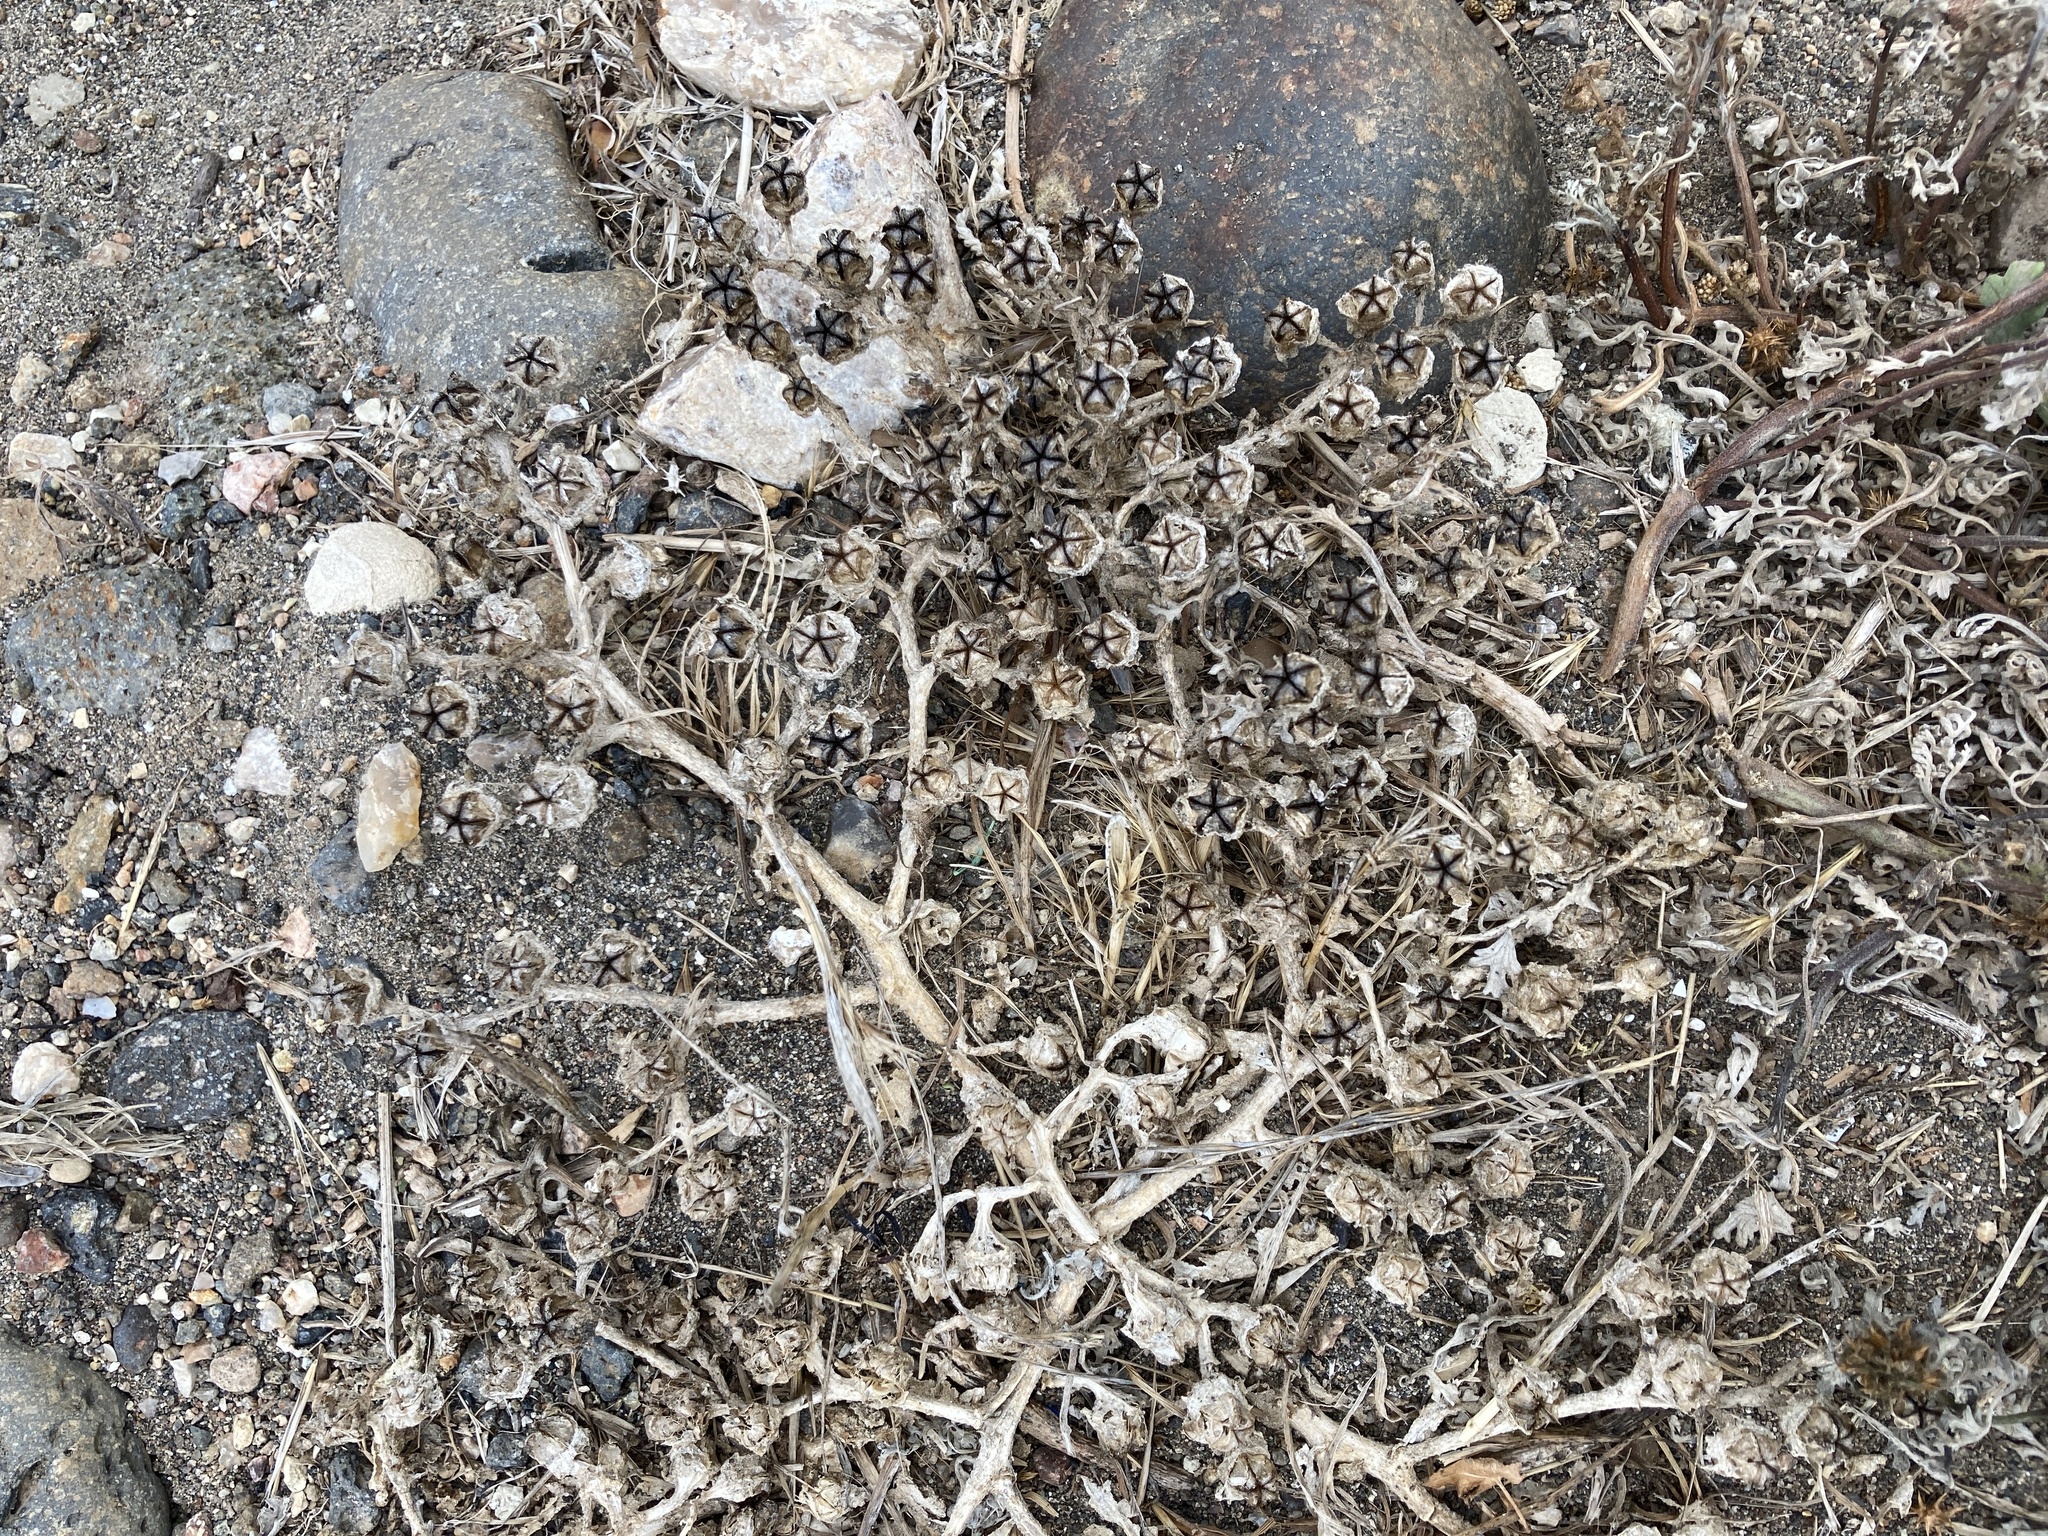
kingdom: Plantae
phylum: Tracheophyta
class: Magnoliopsida
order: Caryophyllales
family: Aizoaceae
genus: Mesembryanthemum
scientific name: Mesembryanthemum crystallinum
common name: Common iceplant
